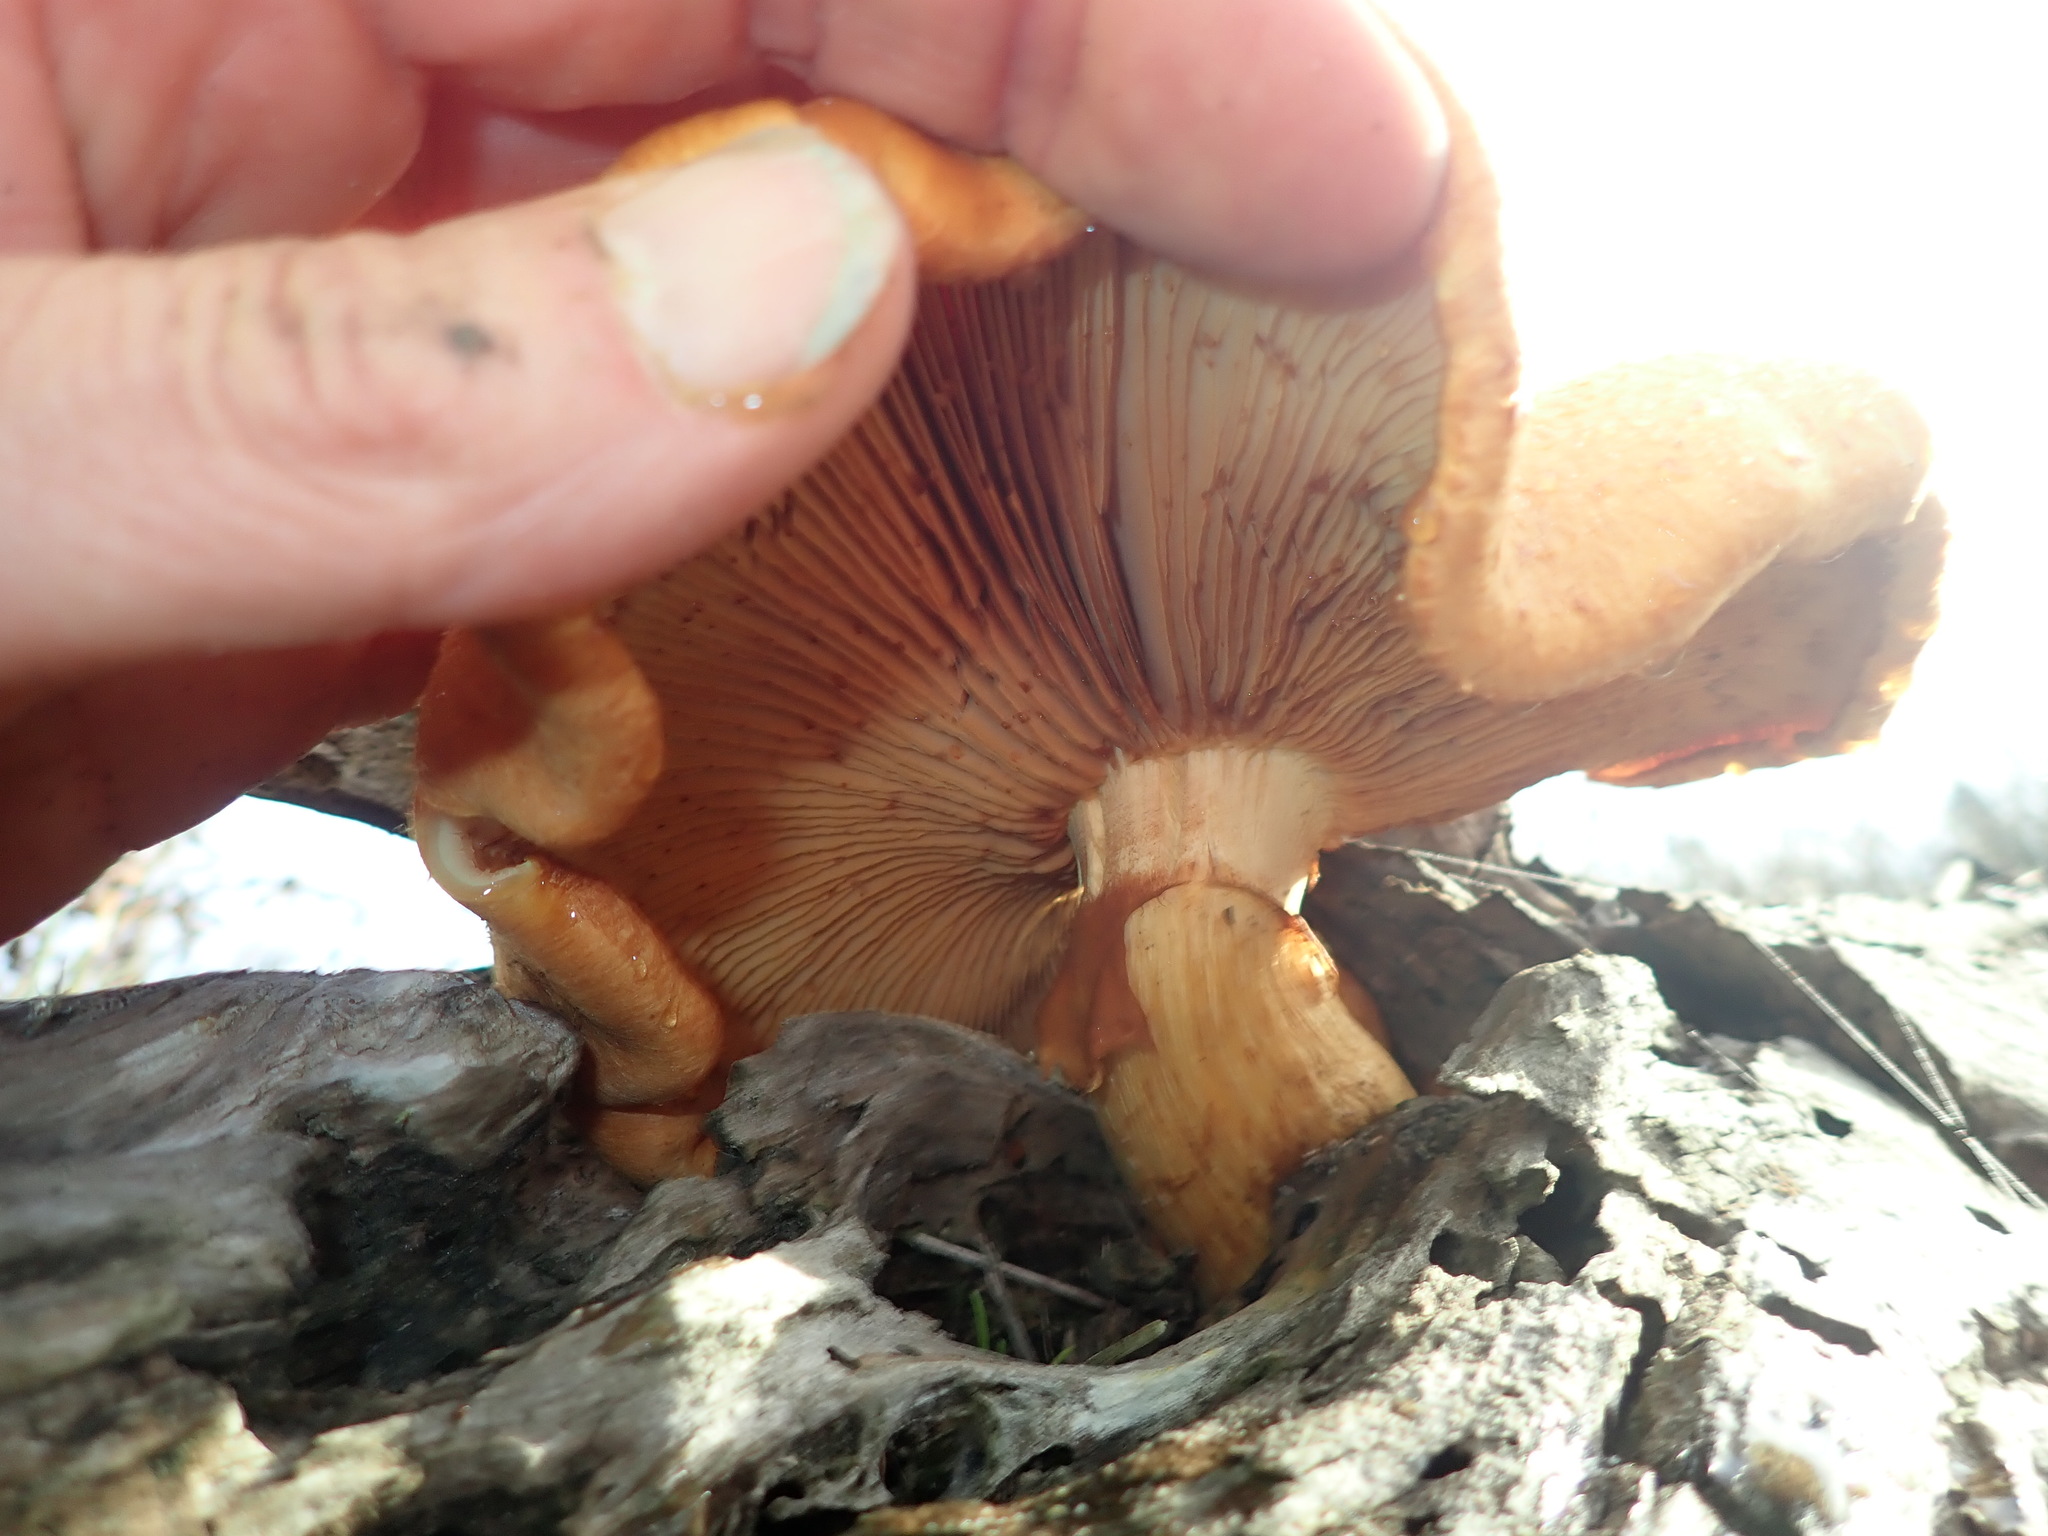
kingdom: Fungi
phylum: Basidiomycota
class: Agaricomycetes
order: Agaricales
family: Hymenogastraceae
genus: Gymnopilus
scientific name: Gymnopilus junonius
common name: Spectacular rustgill
